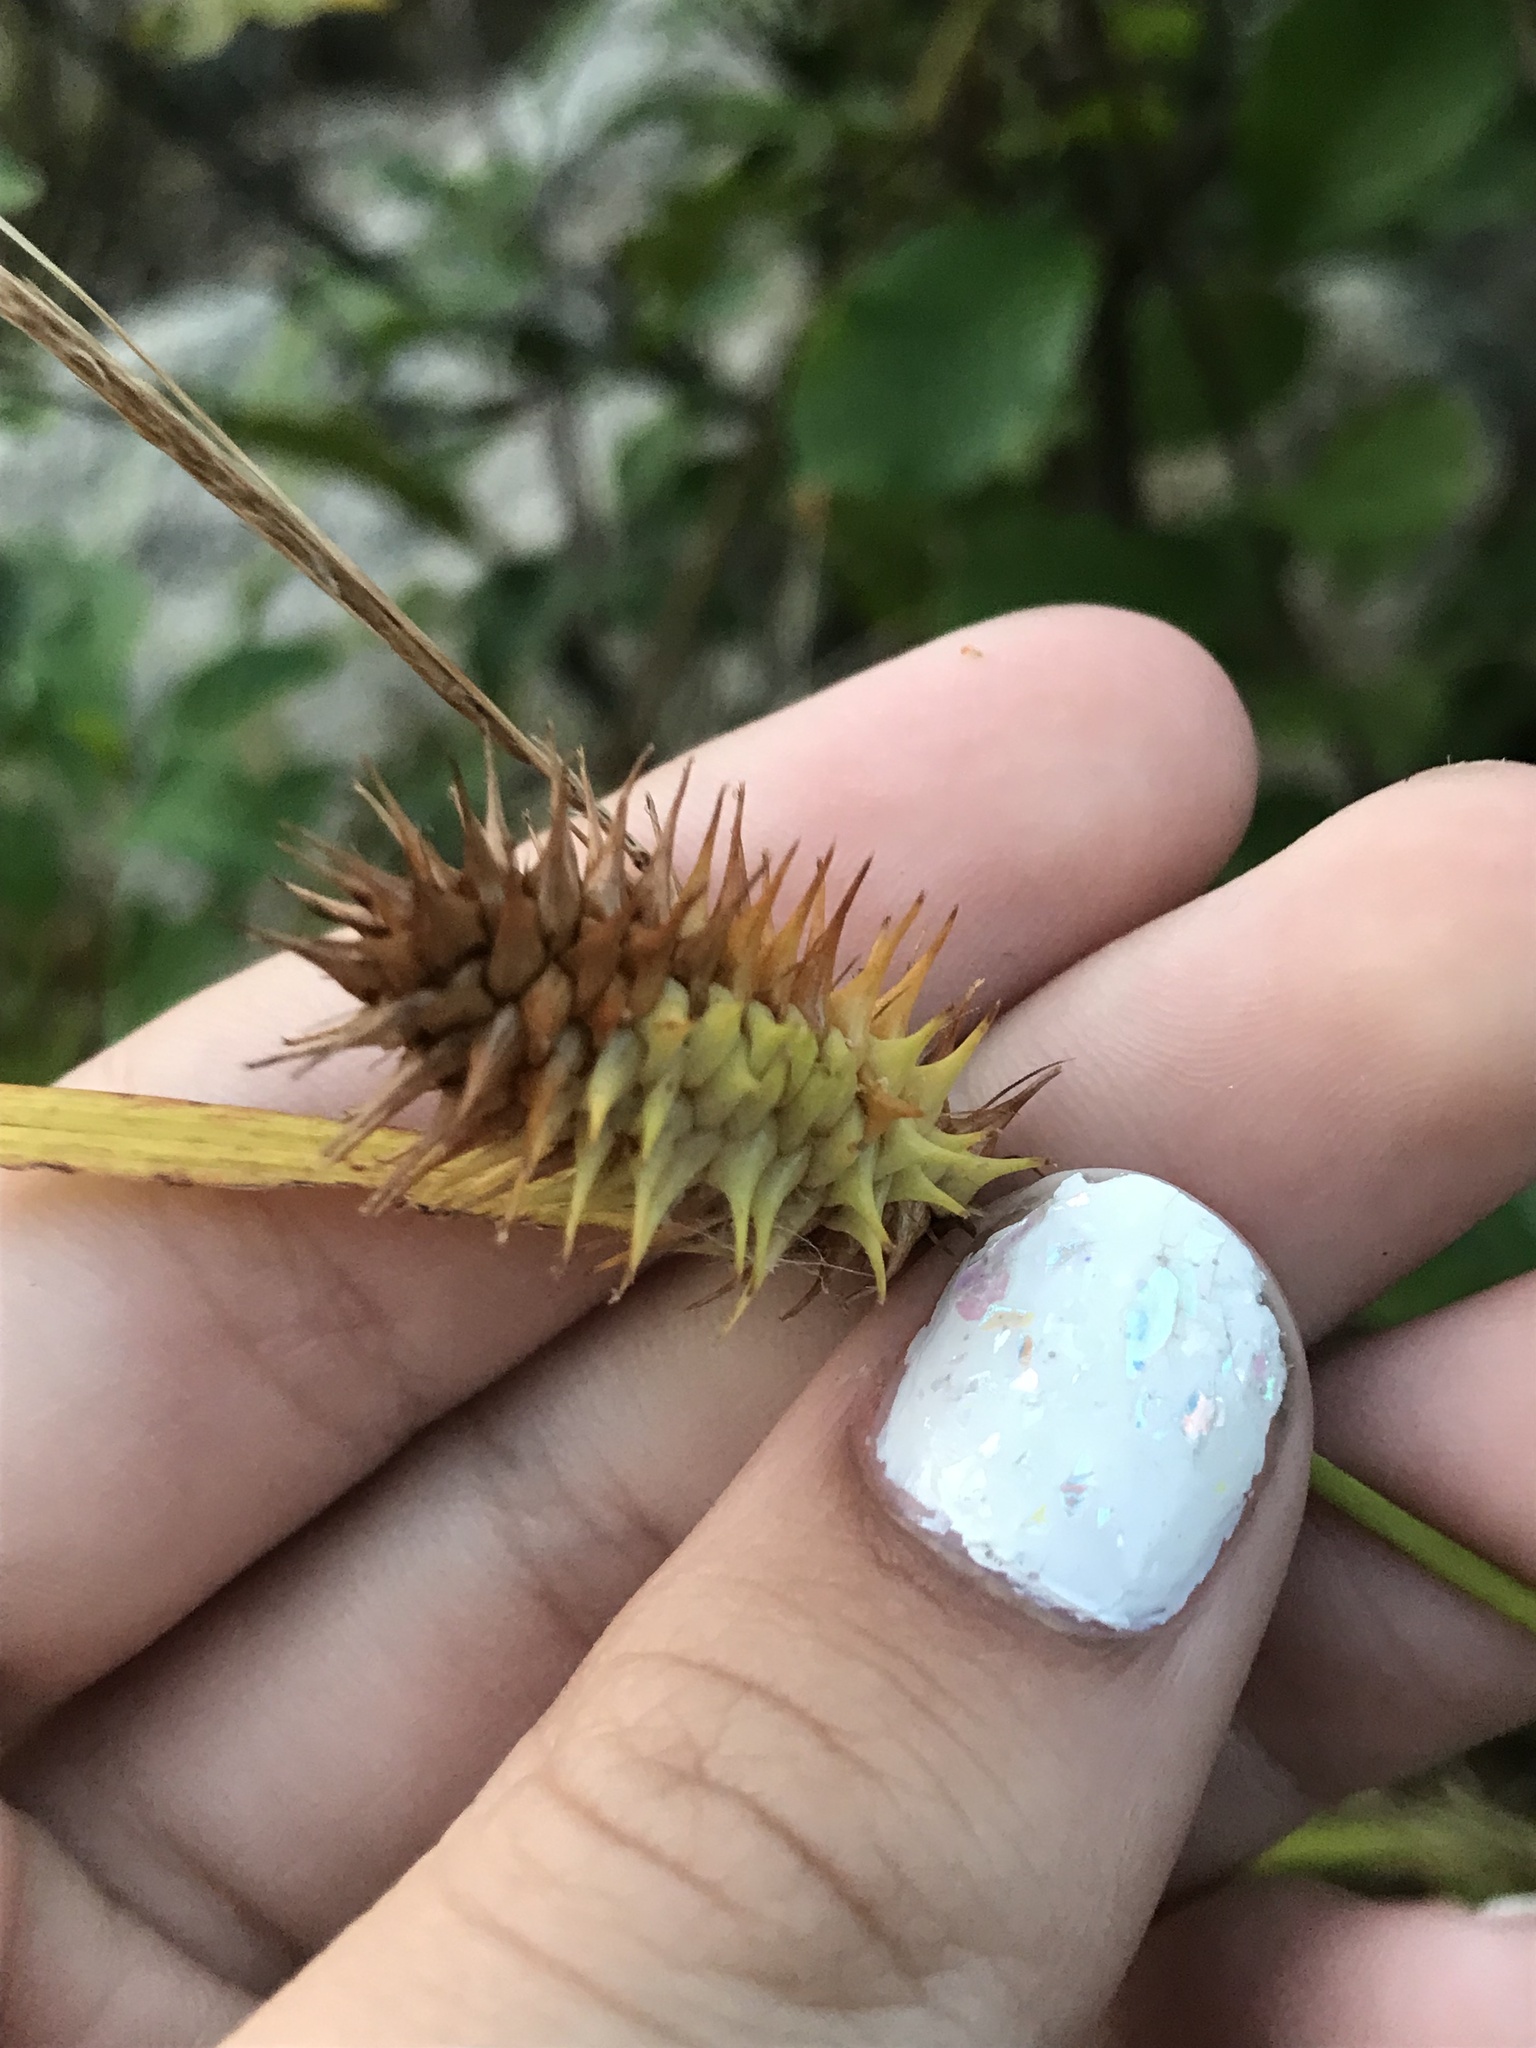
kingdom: Plantae
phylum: Tracheophyta
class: Liliopsida
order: Poales
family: Cyperaceae
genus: Carex
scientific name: Carex lurida
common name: Sallow sedge
